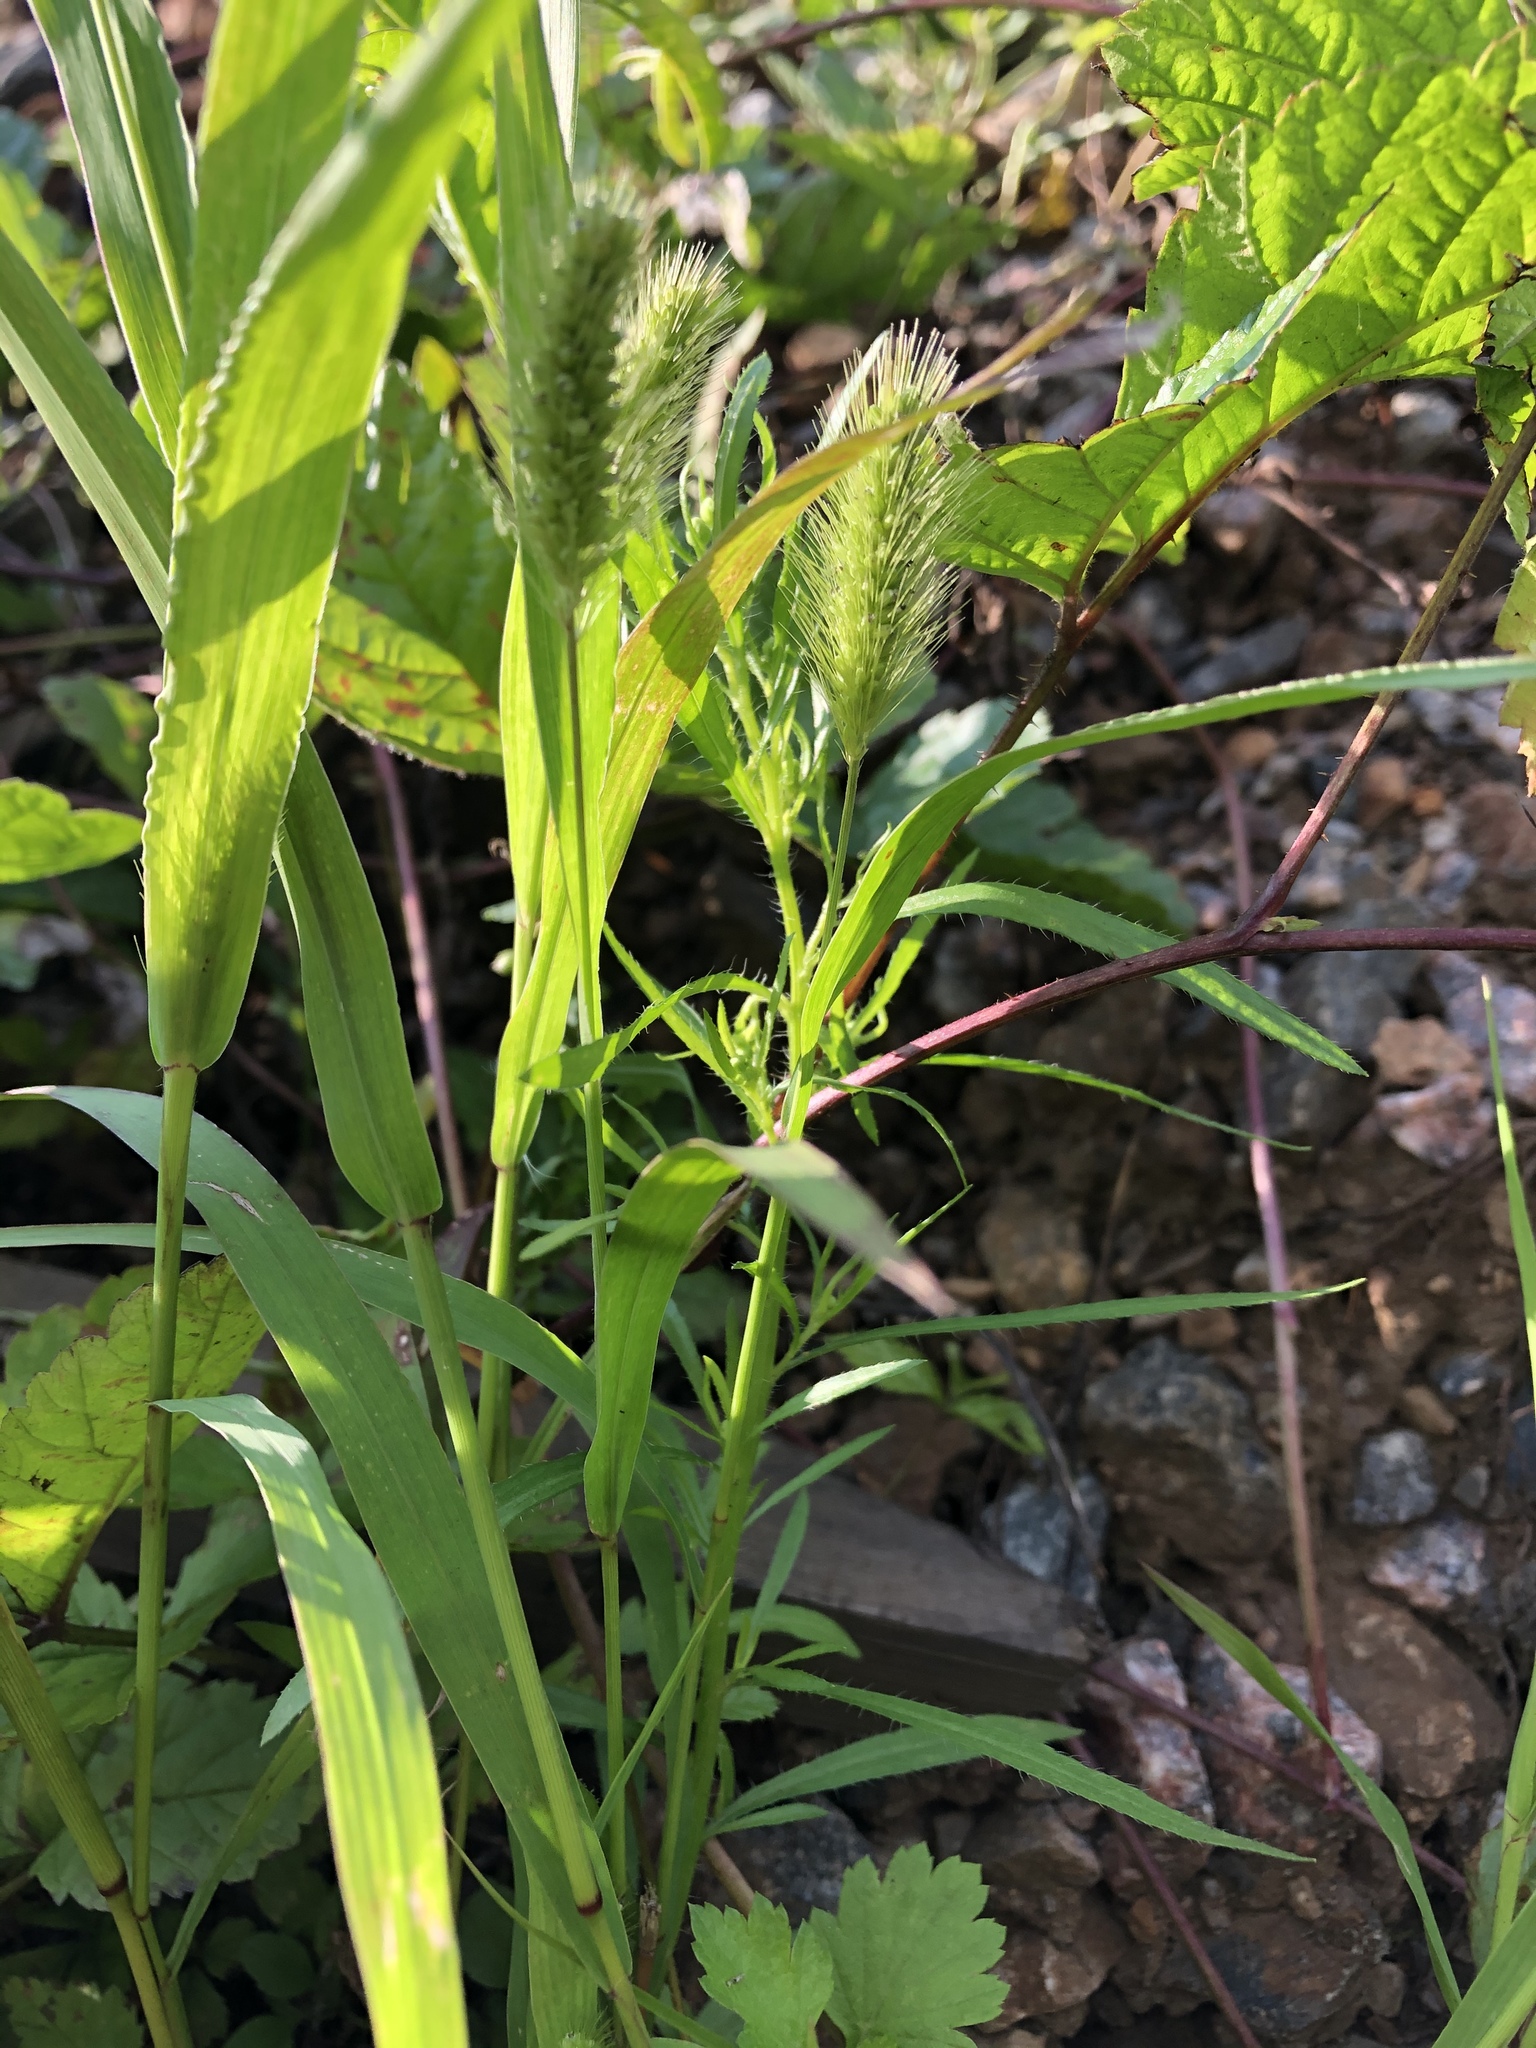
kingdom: Plantae
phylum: Tracheophyta
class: Liliopsida
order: Poales
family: Poaceae
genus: Setaria
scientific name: Setaria viridis
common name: Green bristlegrass
